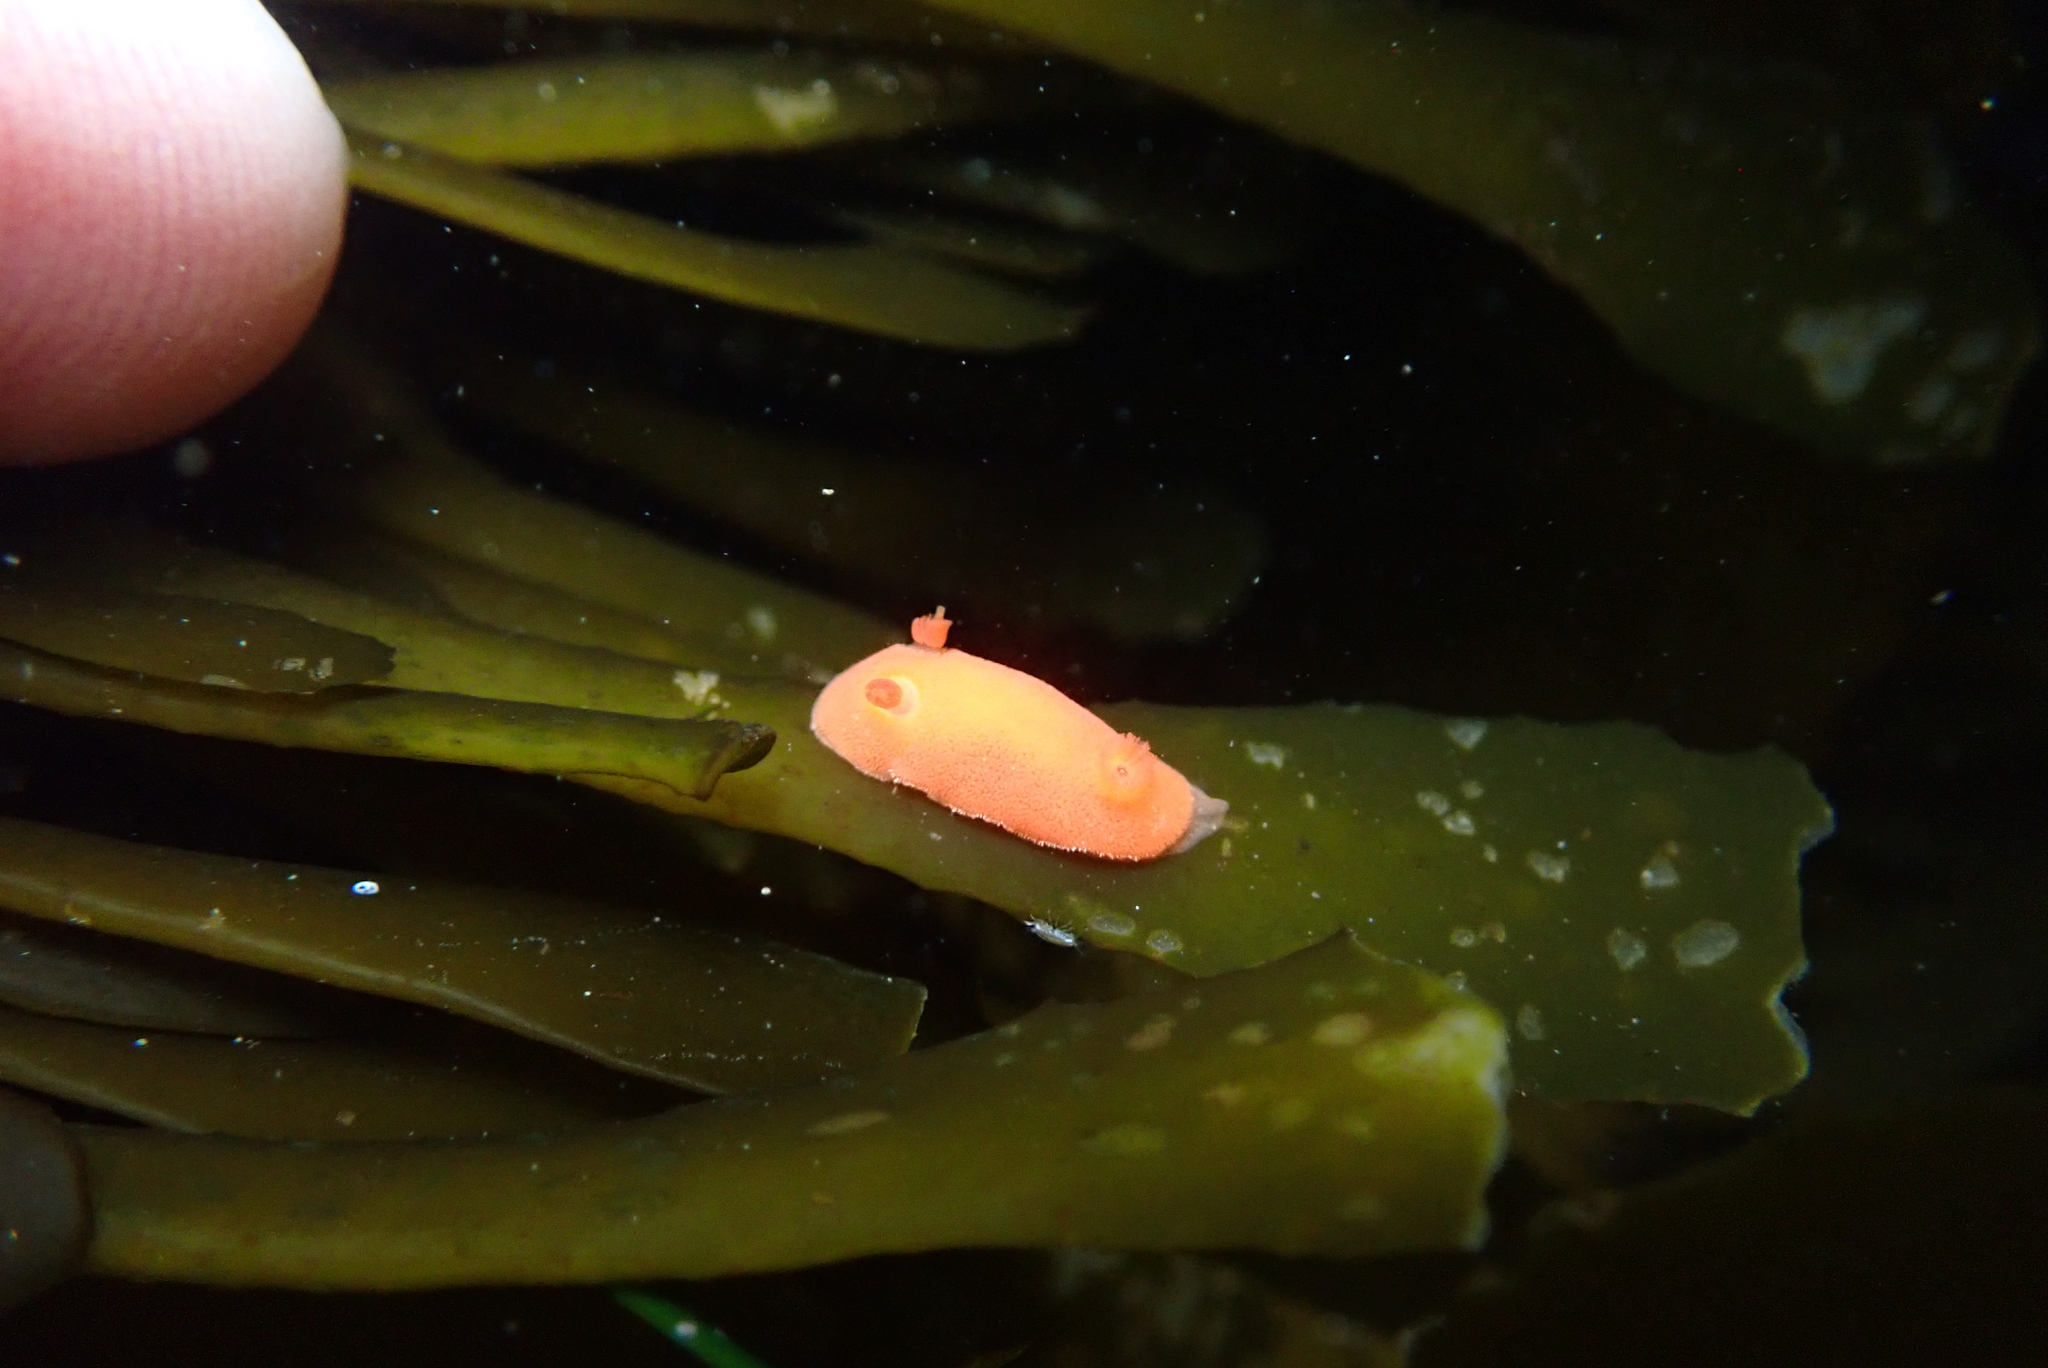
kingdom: Animalia
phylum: Mollusca
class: Gastropoda
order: Nudibranchia
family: Discodorididae
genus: Rostanga
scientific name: Rostanga pulchra
